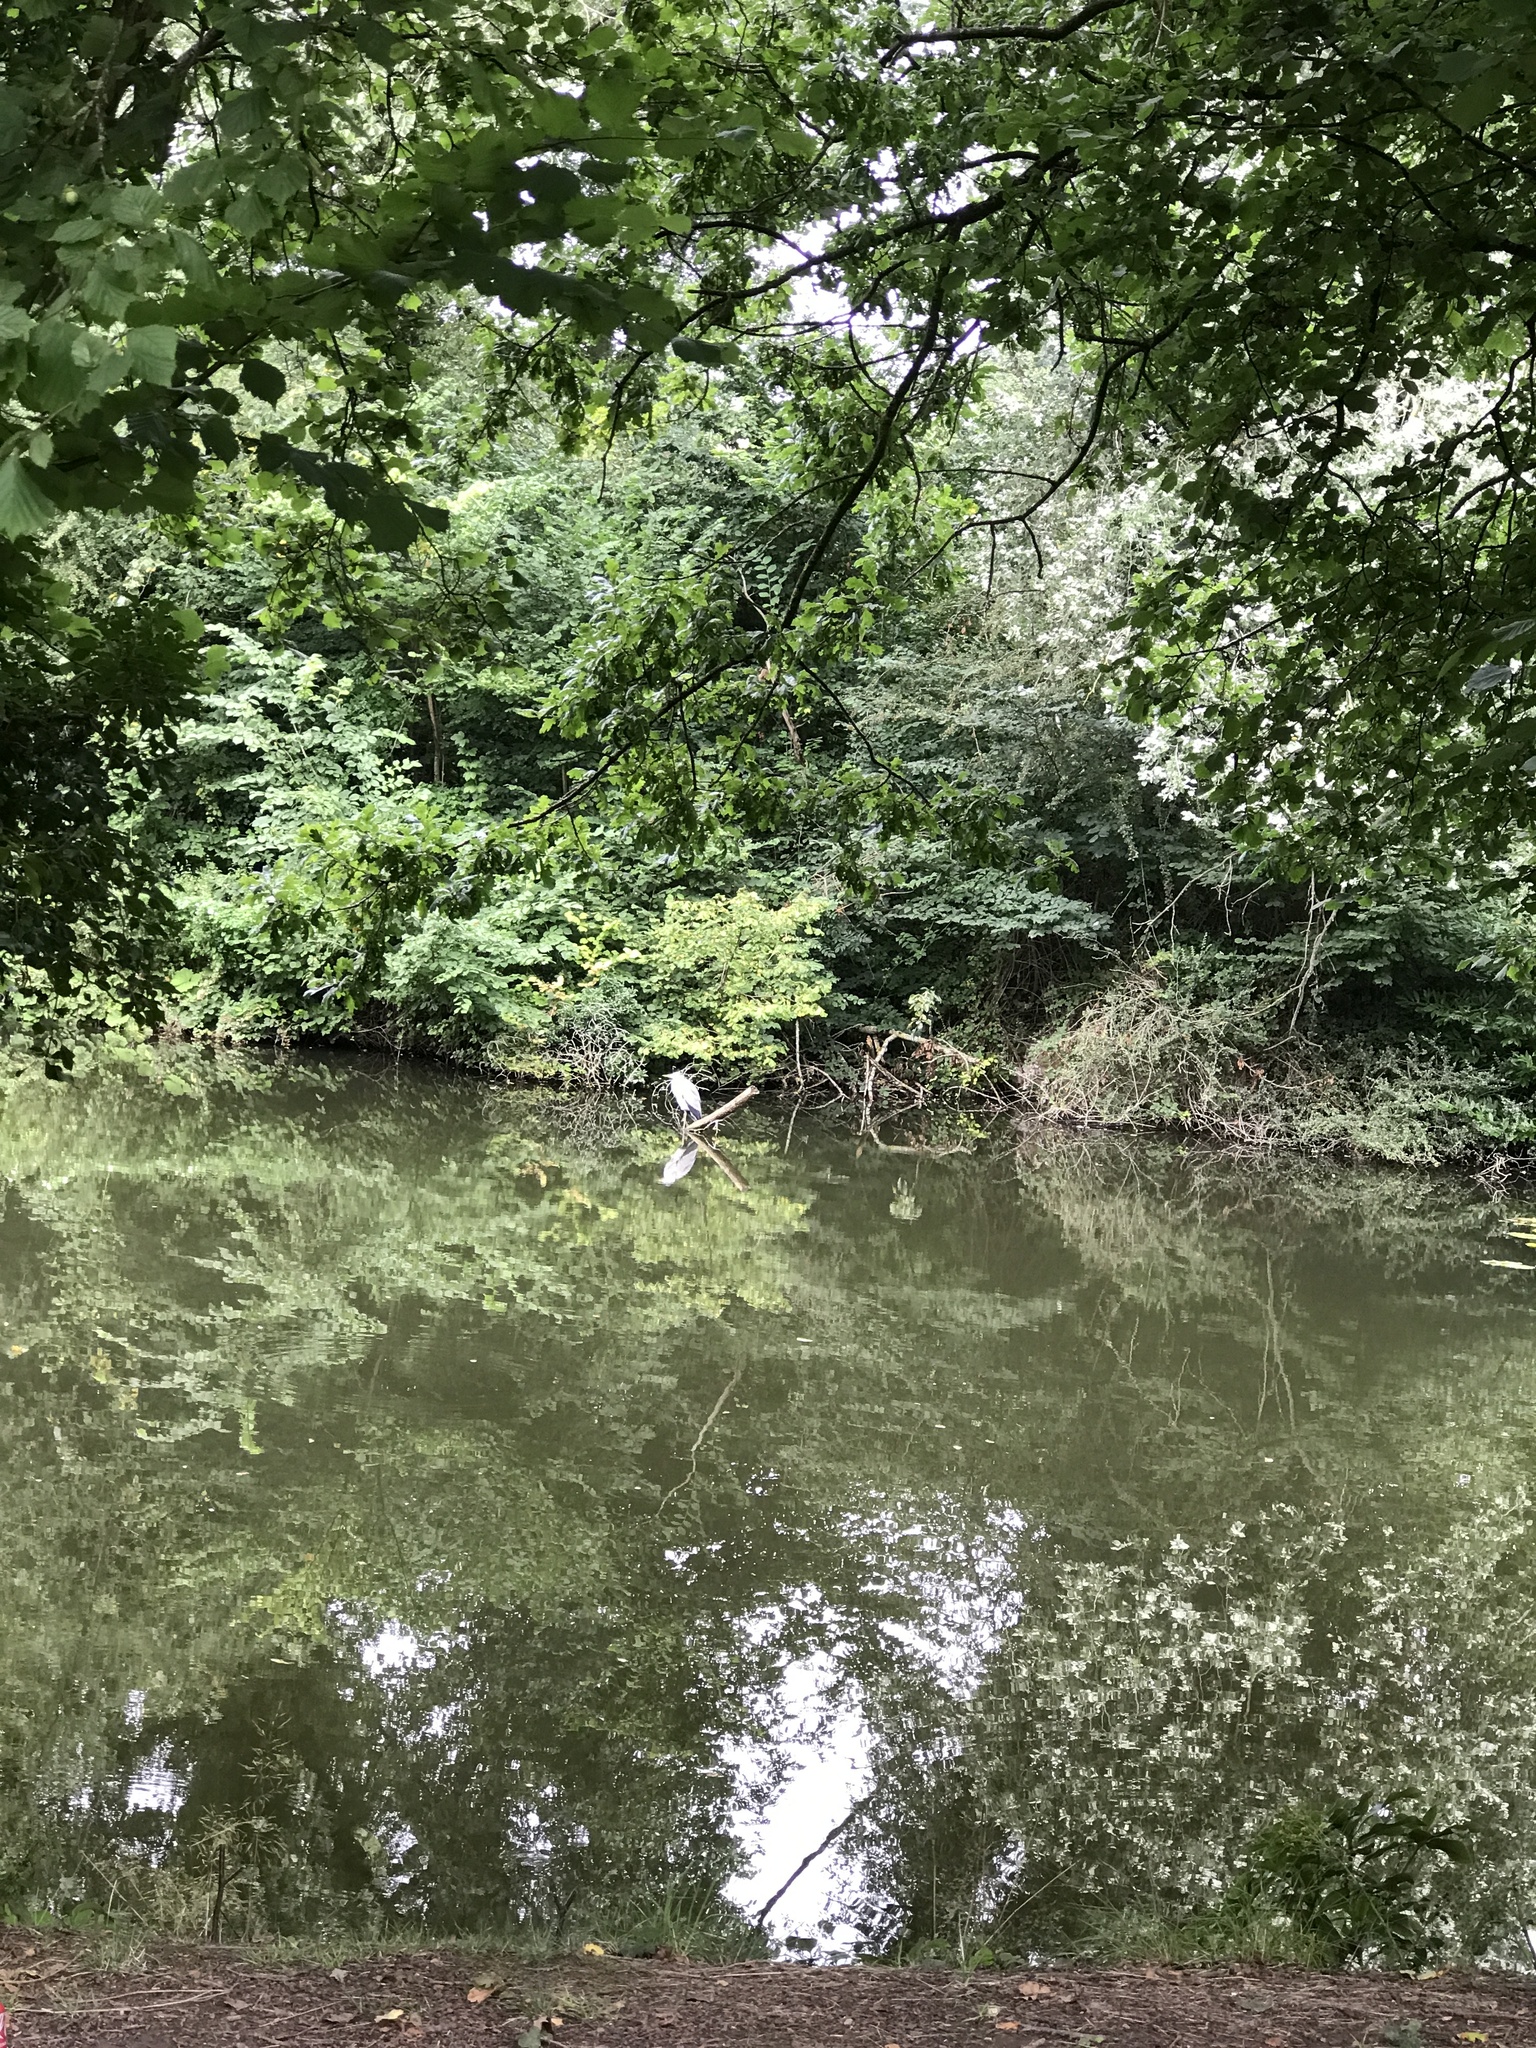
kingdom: Animalia
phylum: Chordata
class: Aves
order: Pelecaniformes
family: Ardeidae
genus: Ardea
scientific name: Ardea cinerea
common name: Grey heron
